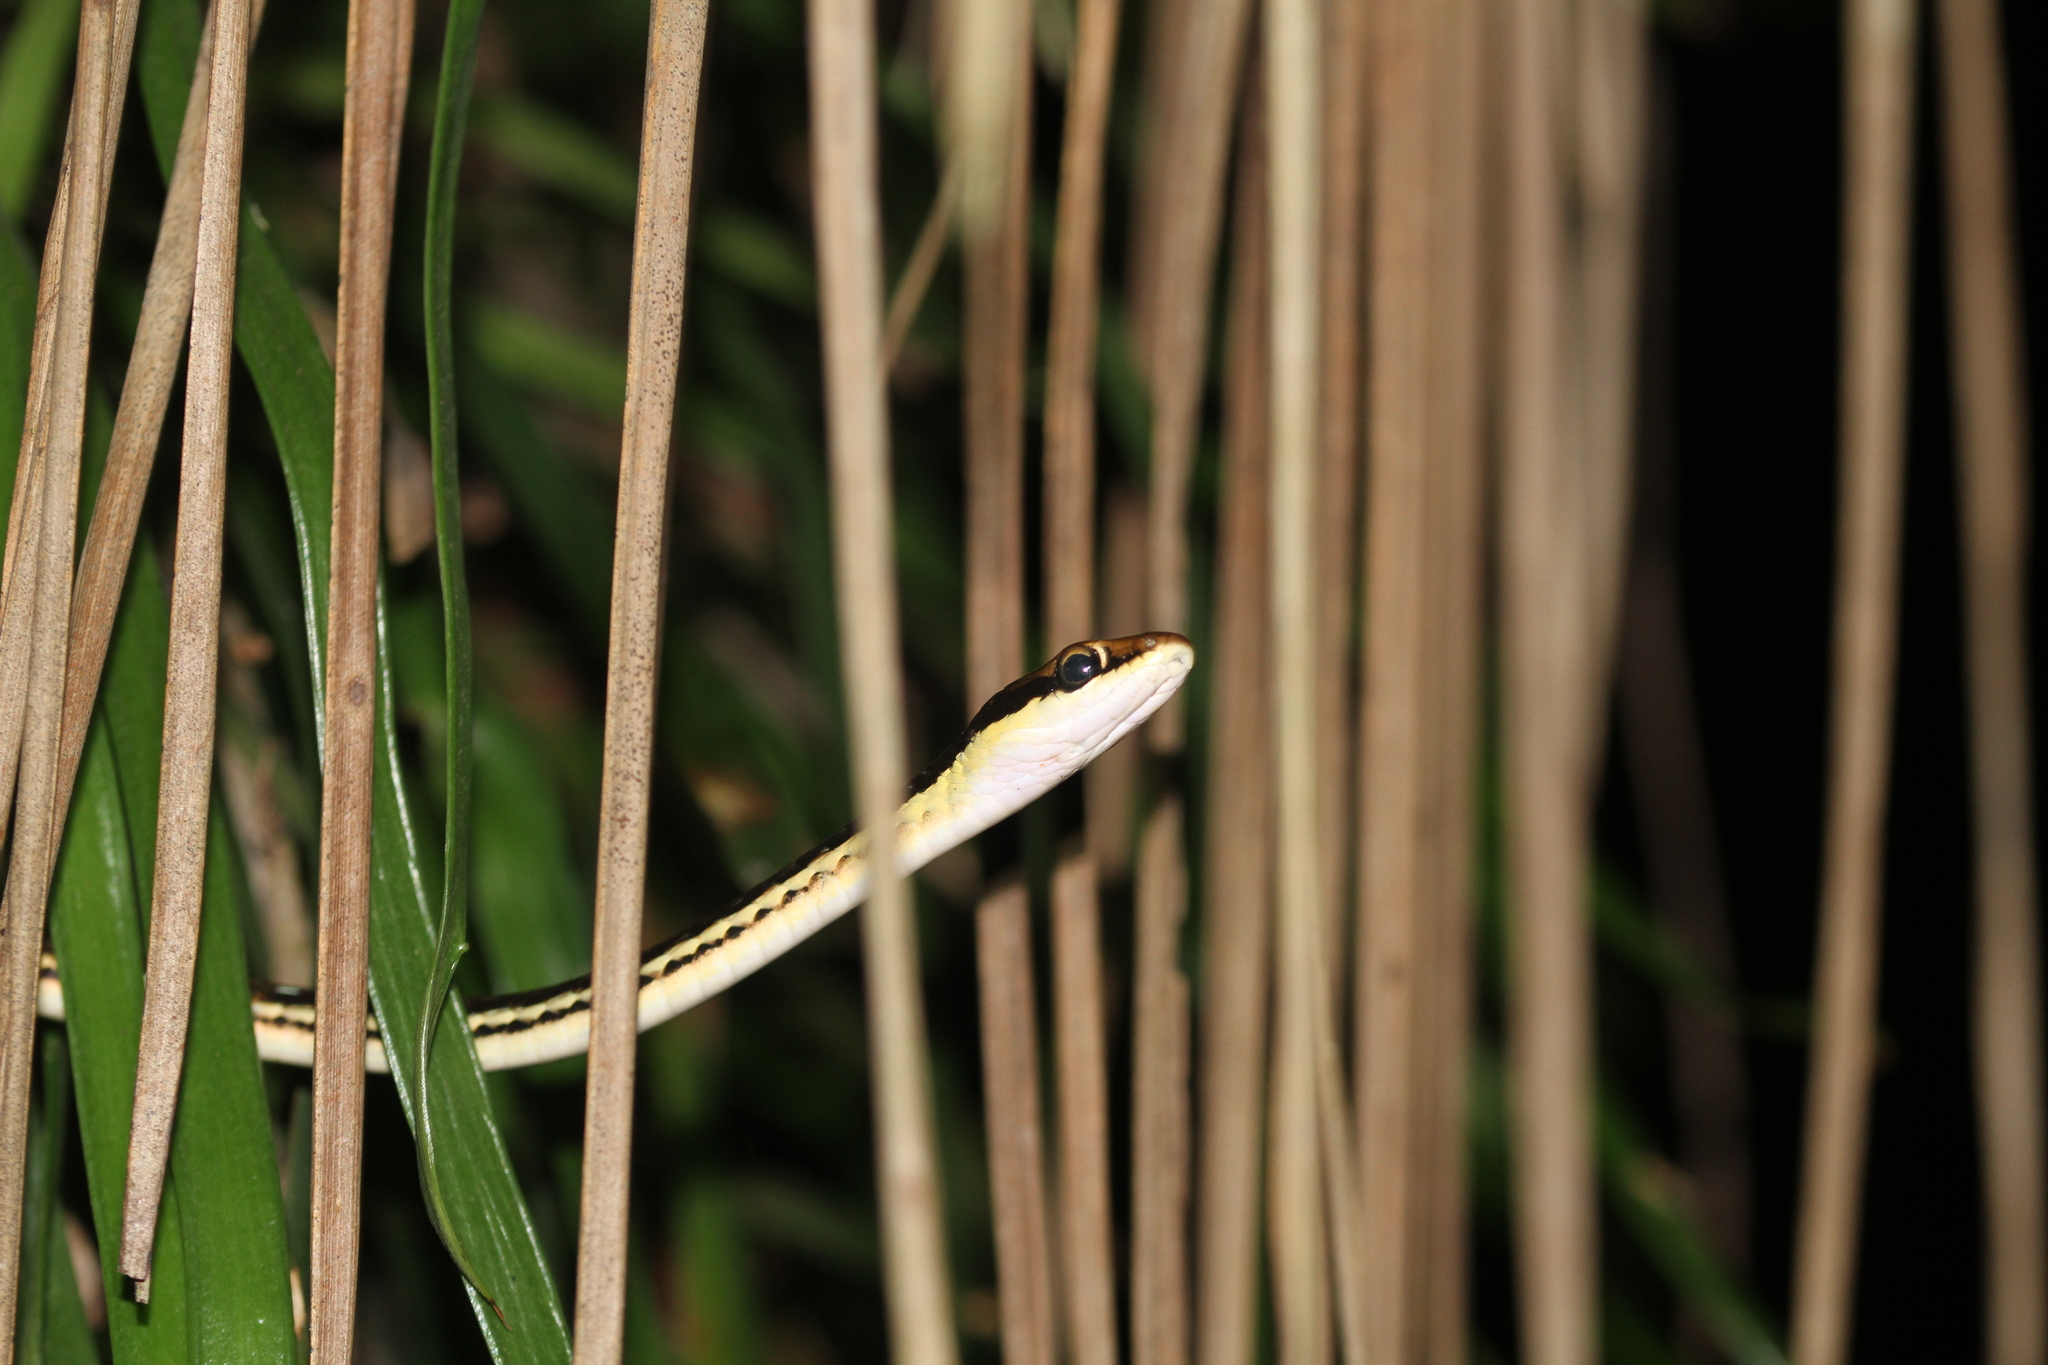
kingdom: Animalia
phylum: Chordata
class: Squamata
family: Colubridae
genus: Dendrelaphis
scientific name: Dendrelaphis pictus
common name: Indonesian bronze-back
